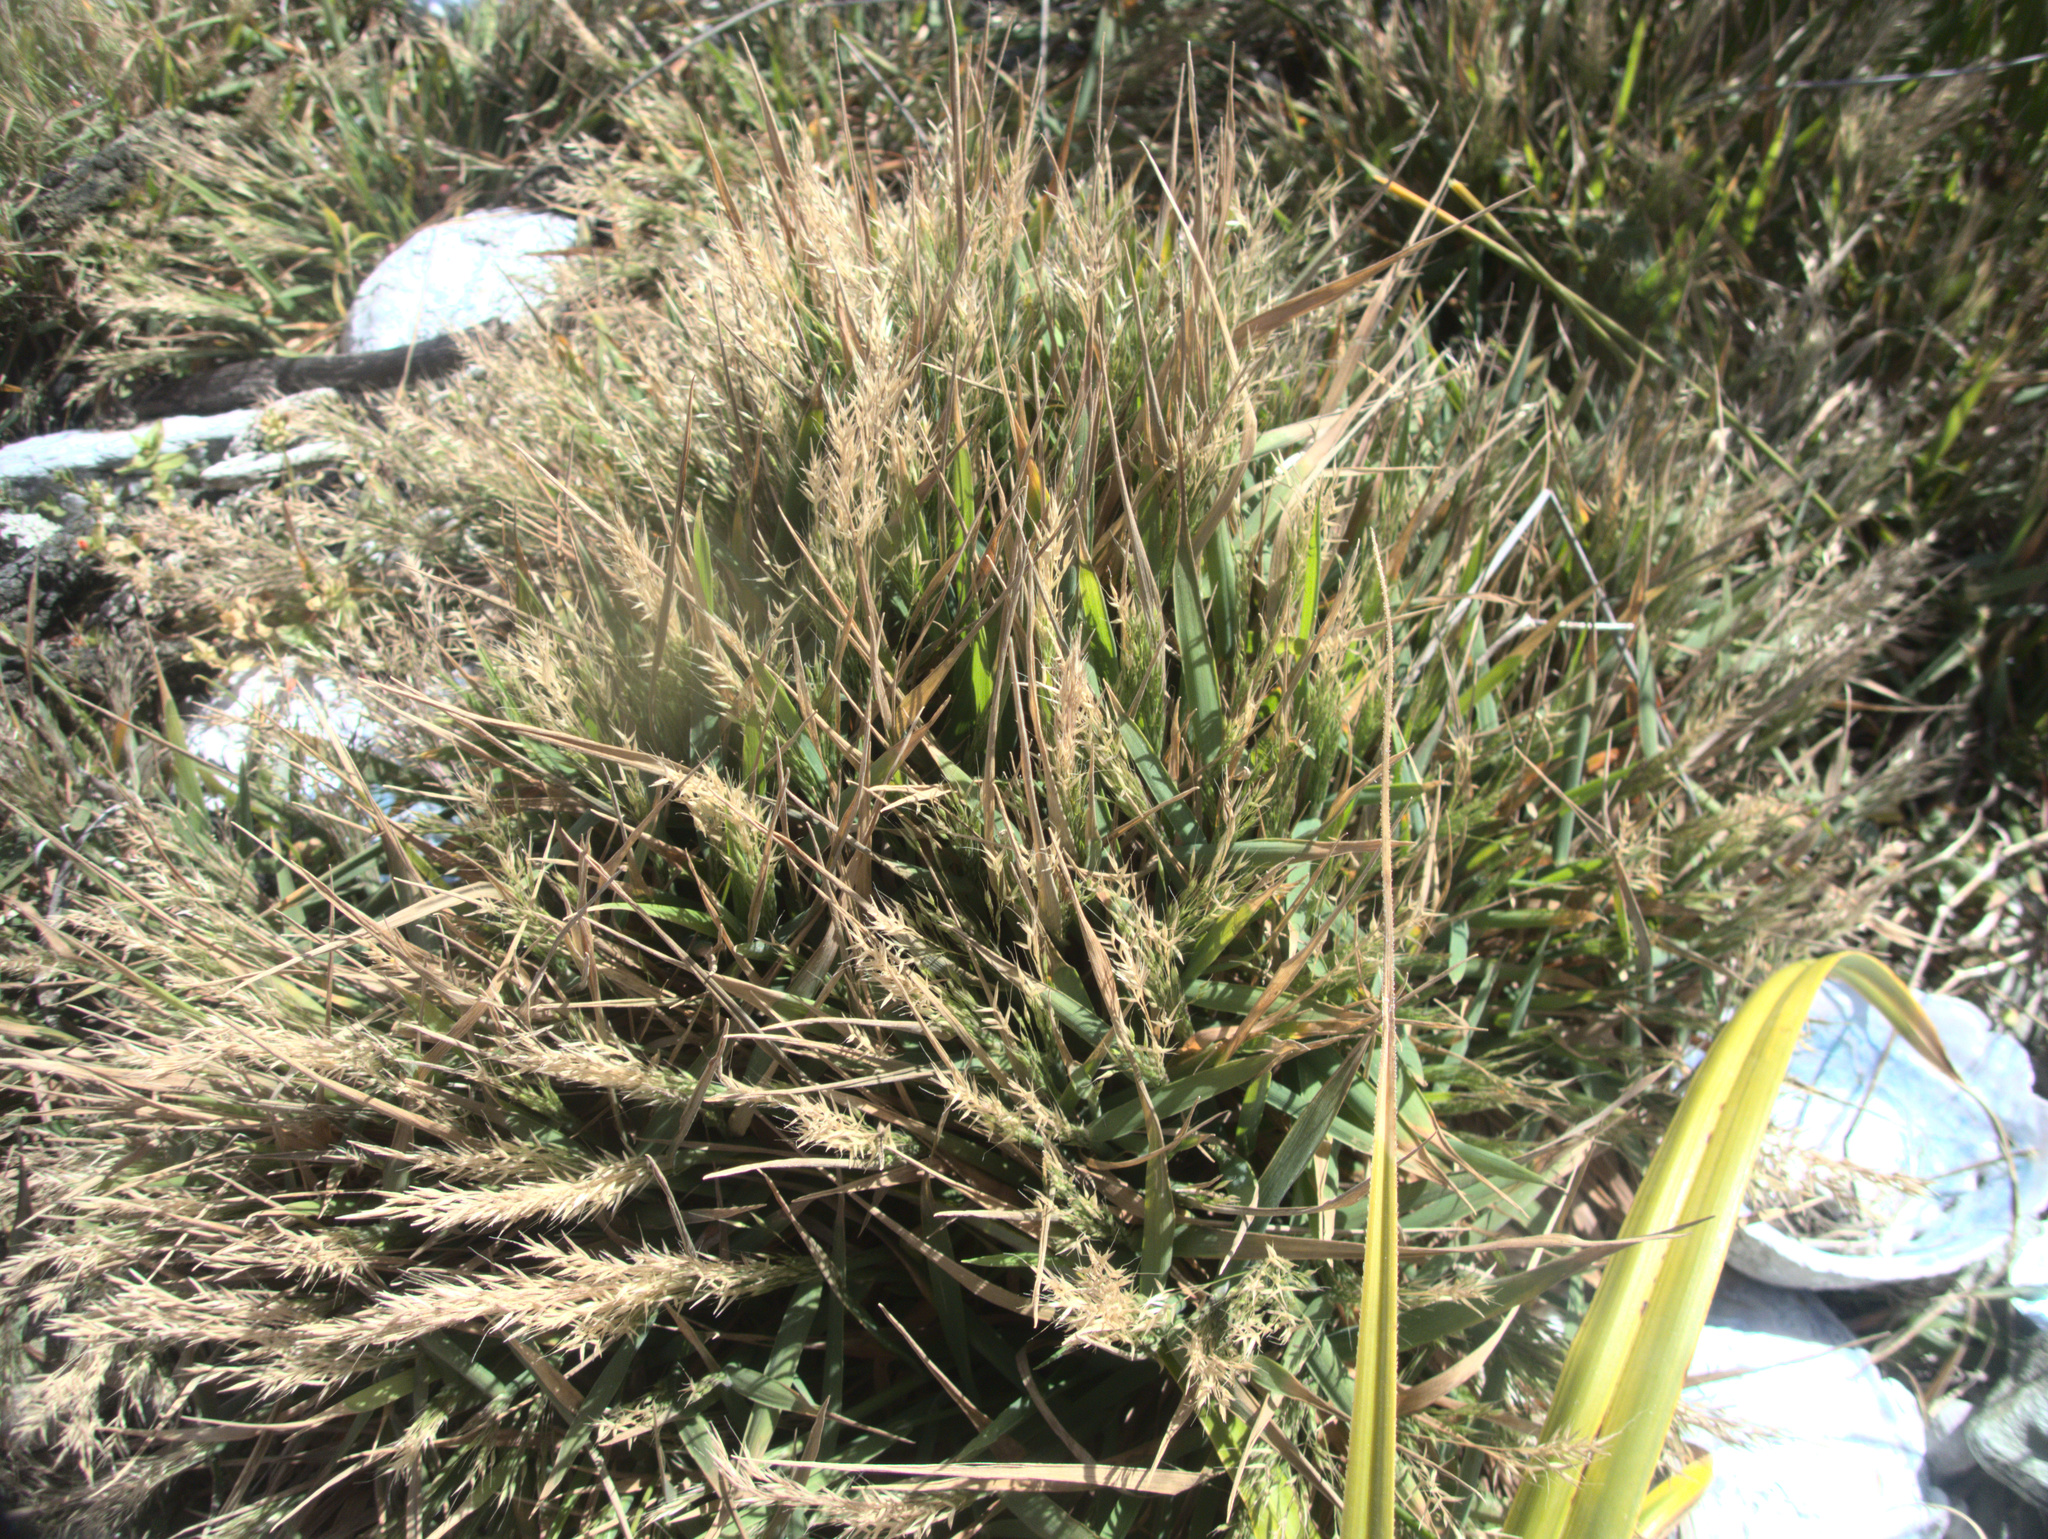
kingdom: Plantae
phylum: Tracheophyta
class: Liliopsida
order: Poales
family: Poaceae
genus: Lachnagrostis
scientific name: Lachnagrostis billardierei
